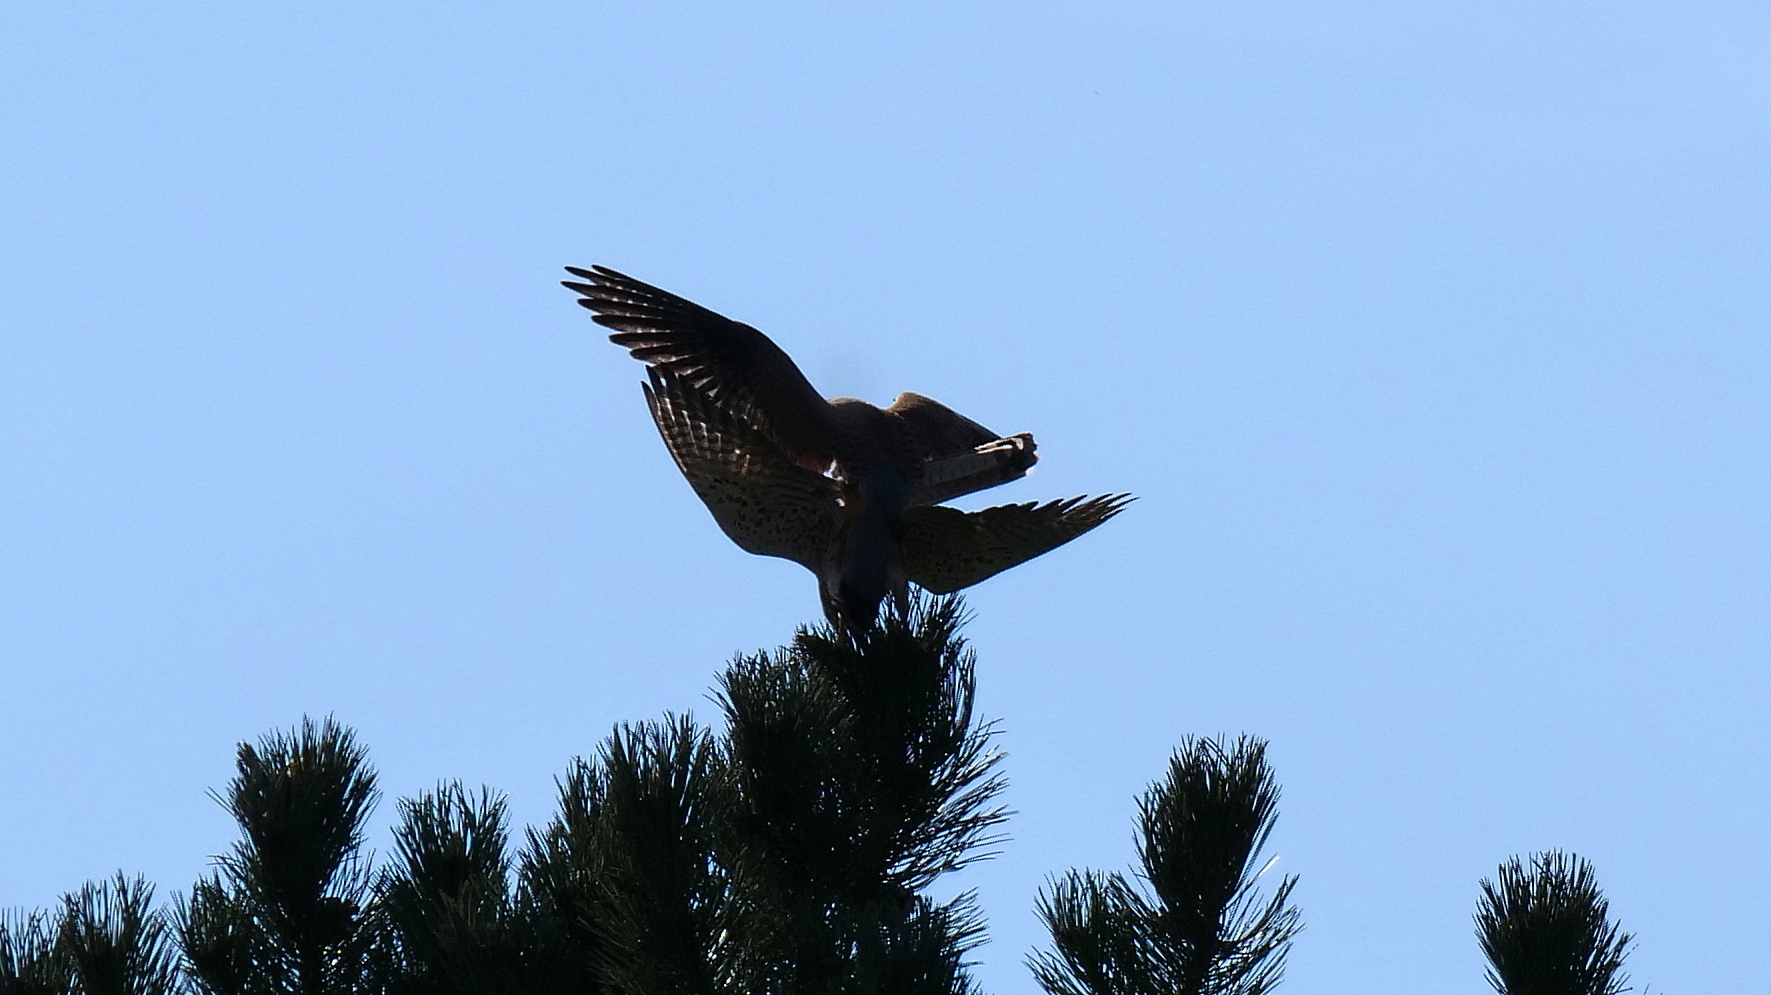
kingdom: Animalia
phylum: Chordata
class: Aves
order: Falconiformes
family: Falconidae
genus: Falco
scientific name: Falco tinnunculus
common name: Common kestrel
